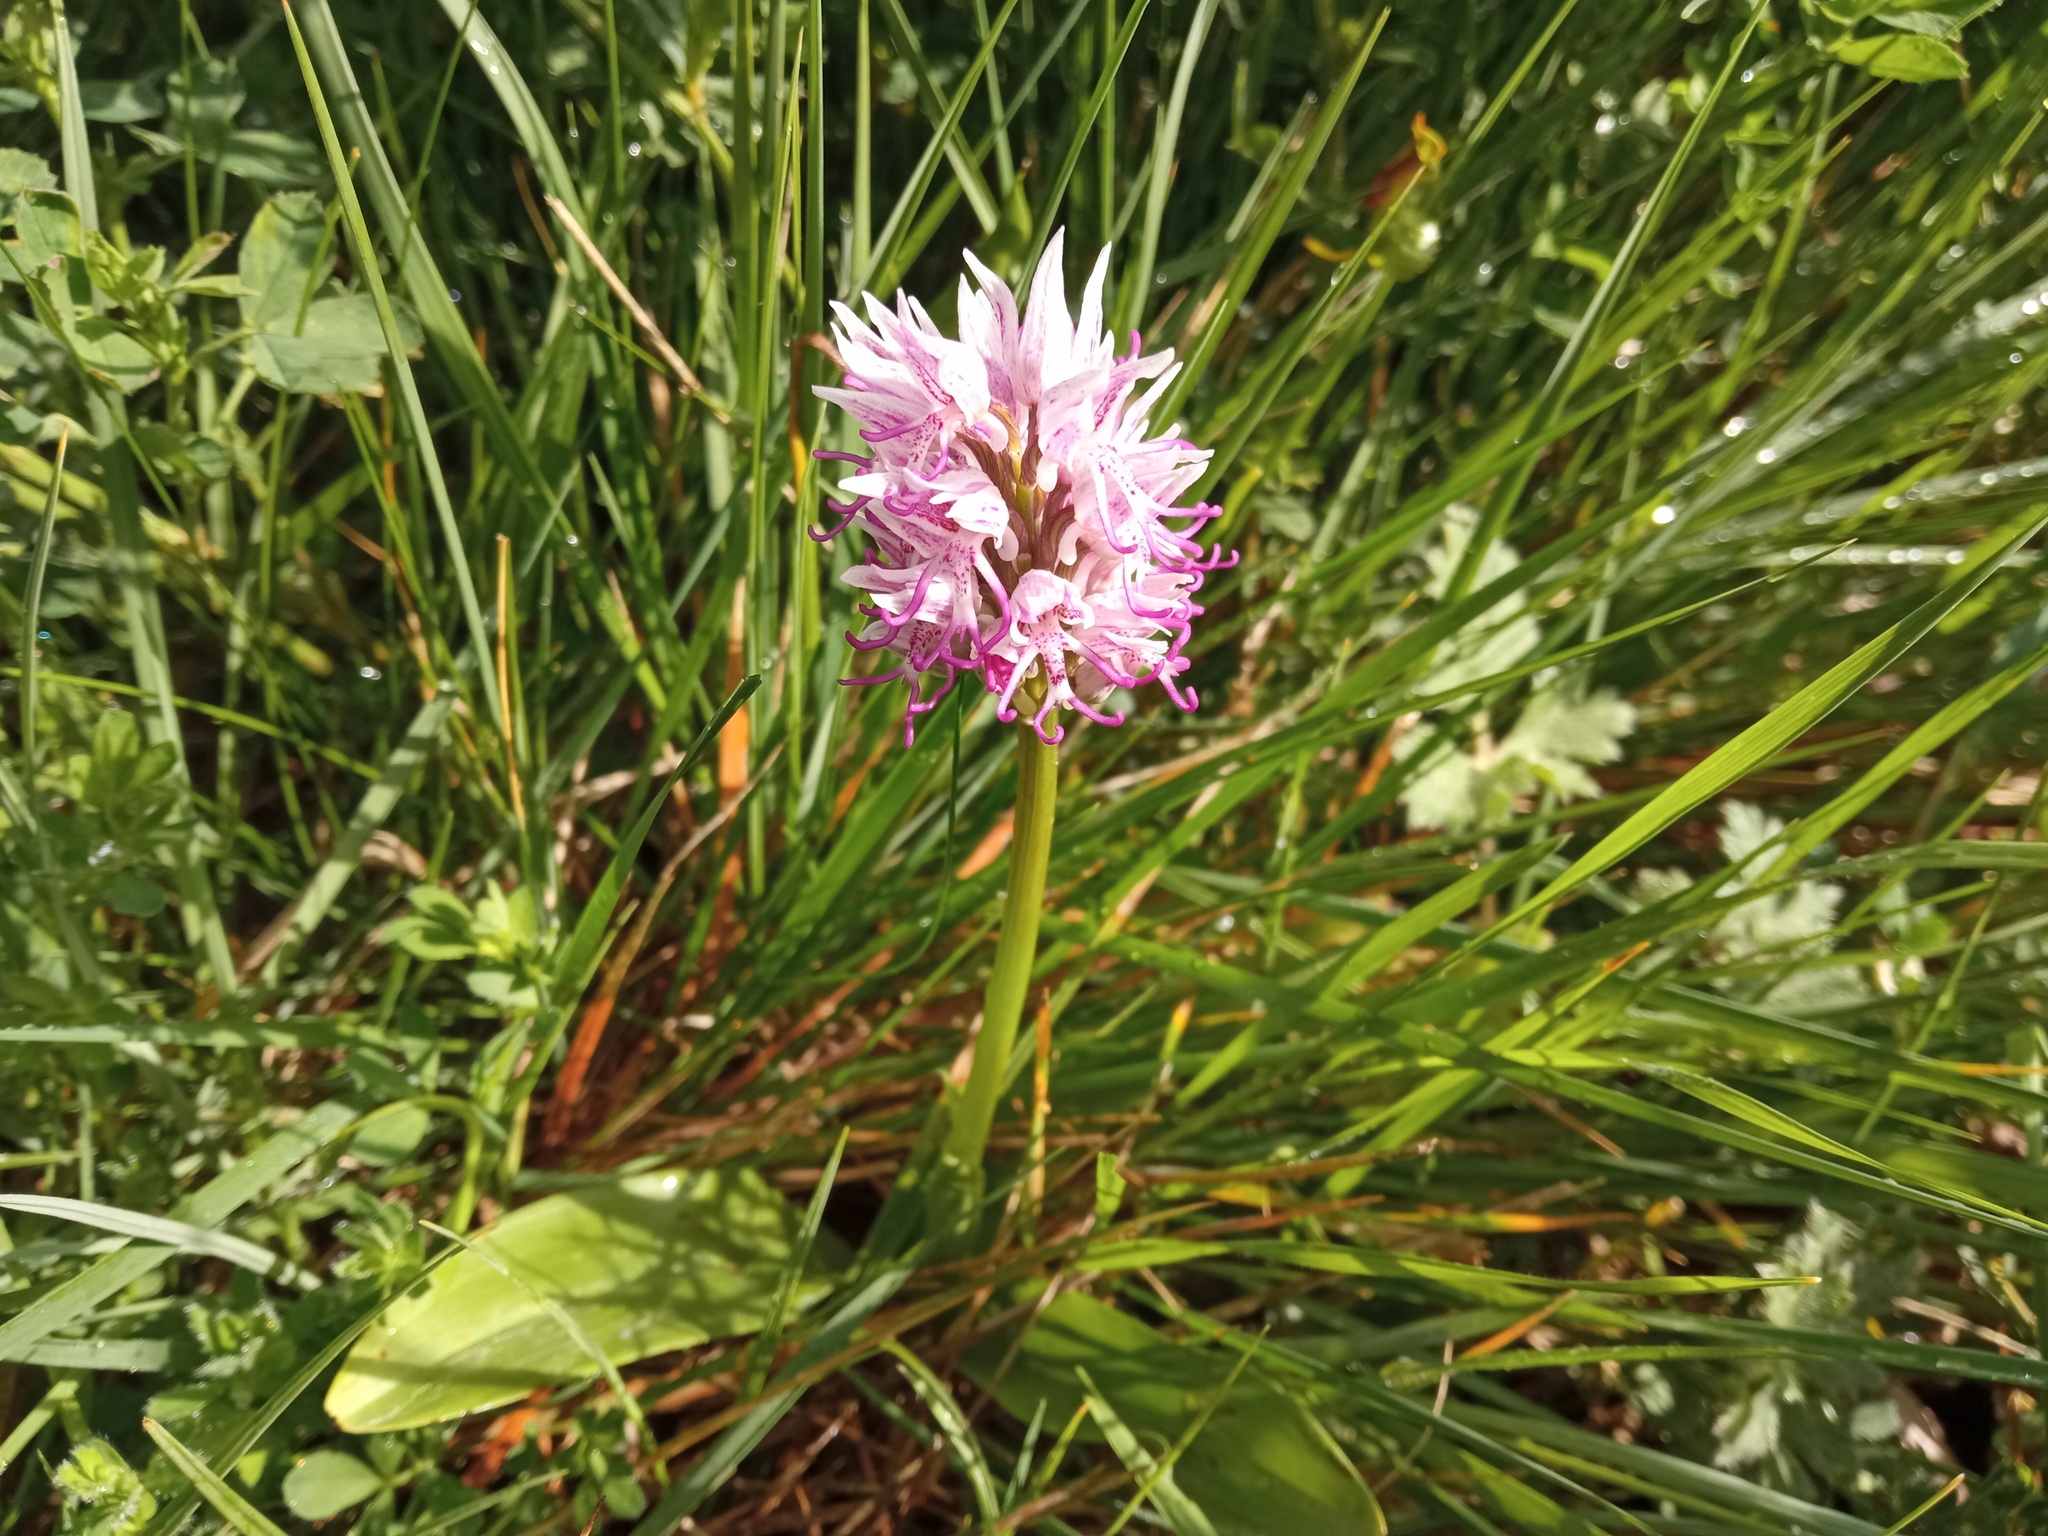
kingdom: Plantae
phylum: Tracheophyta
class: Liliopsida
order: Asparagales
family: Orchidaceae
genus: Orchis
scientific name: Orchis simia
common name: Monkey orchid
